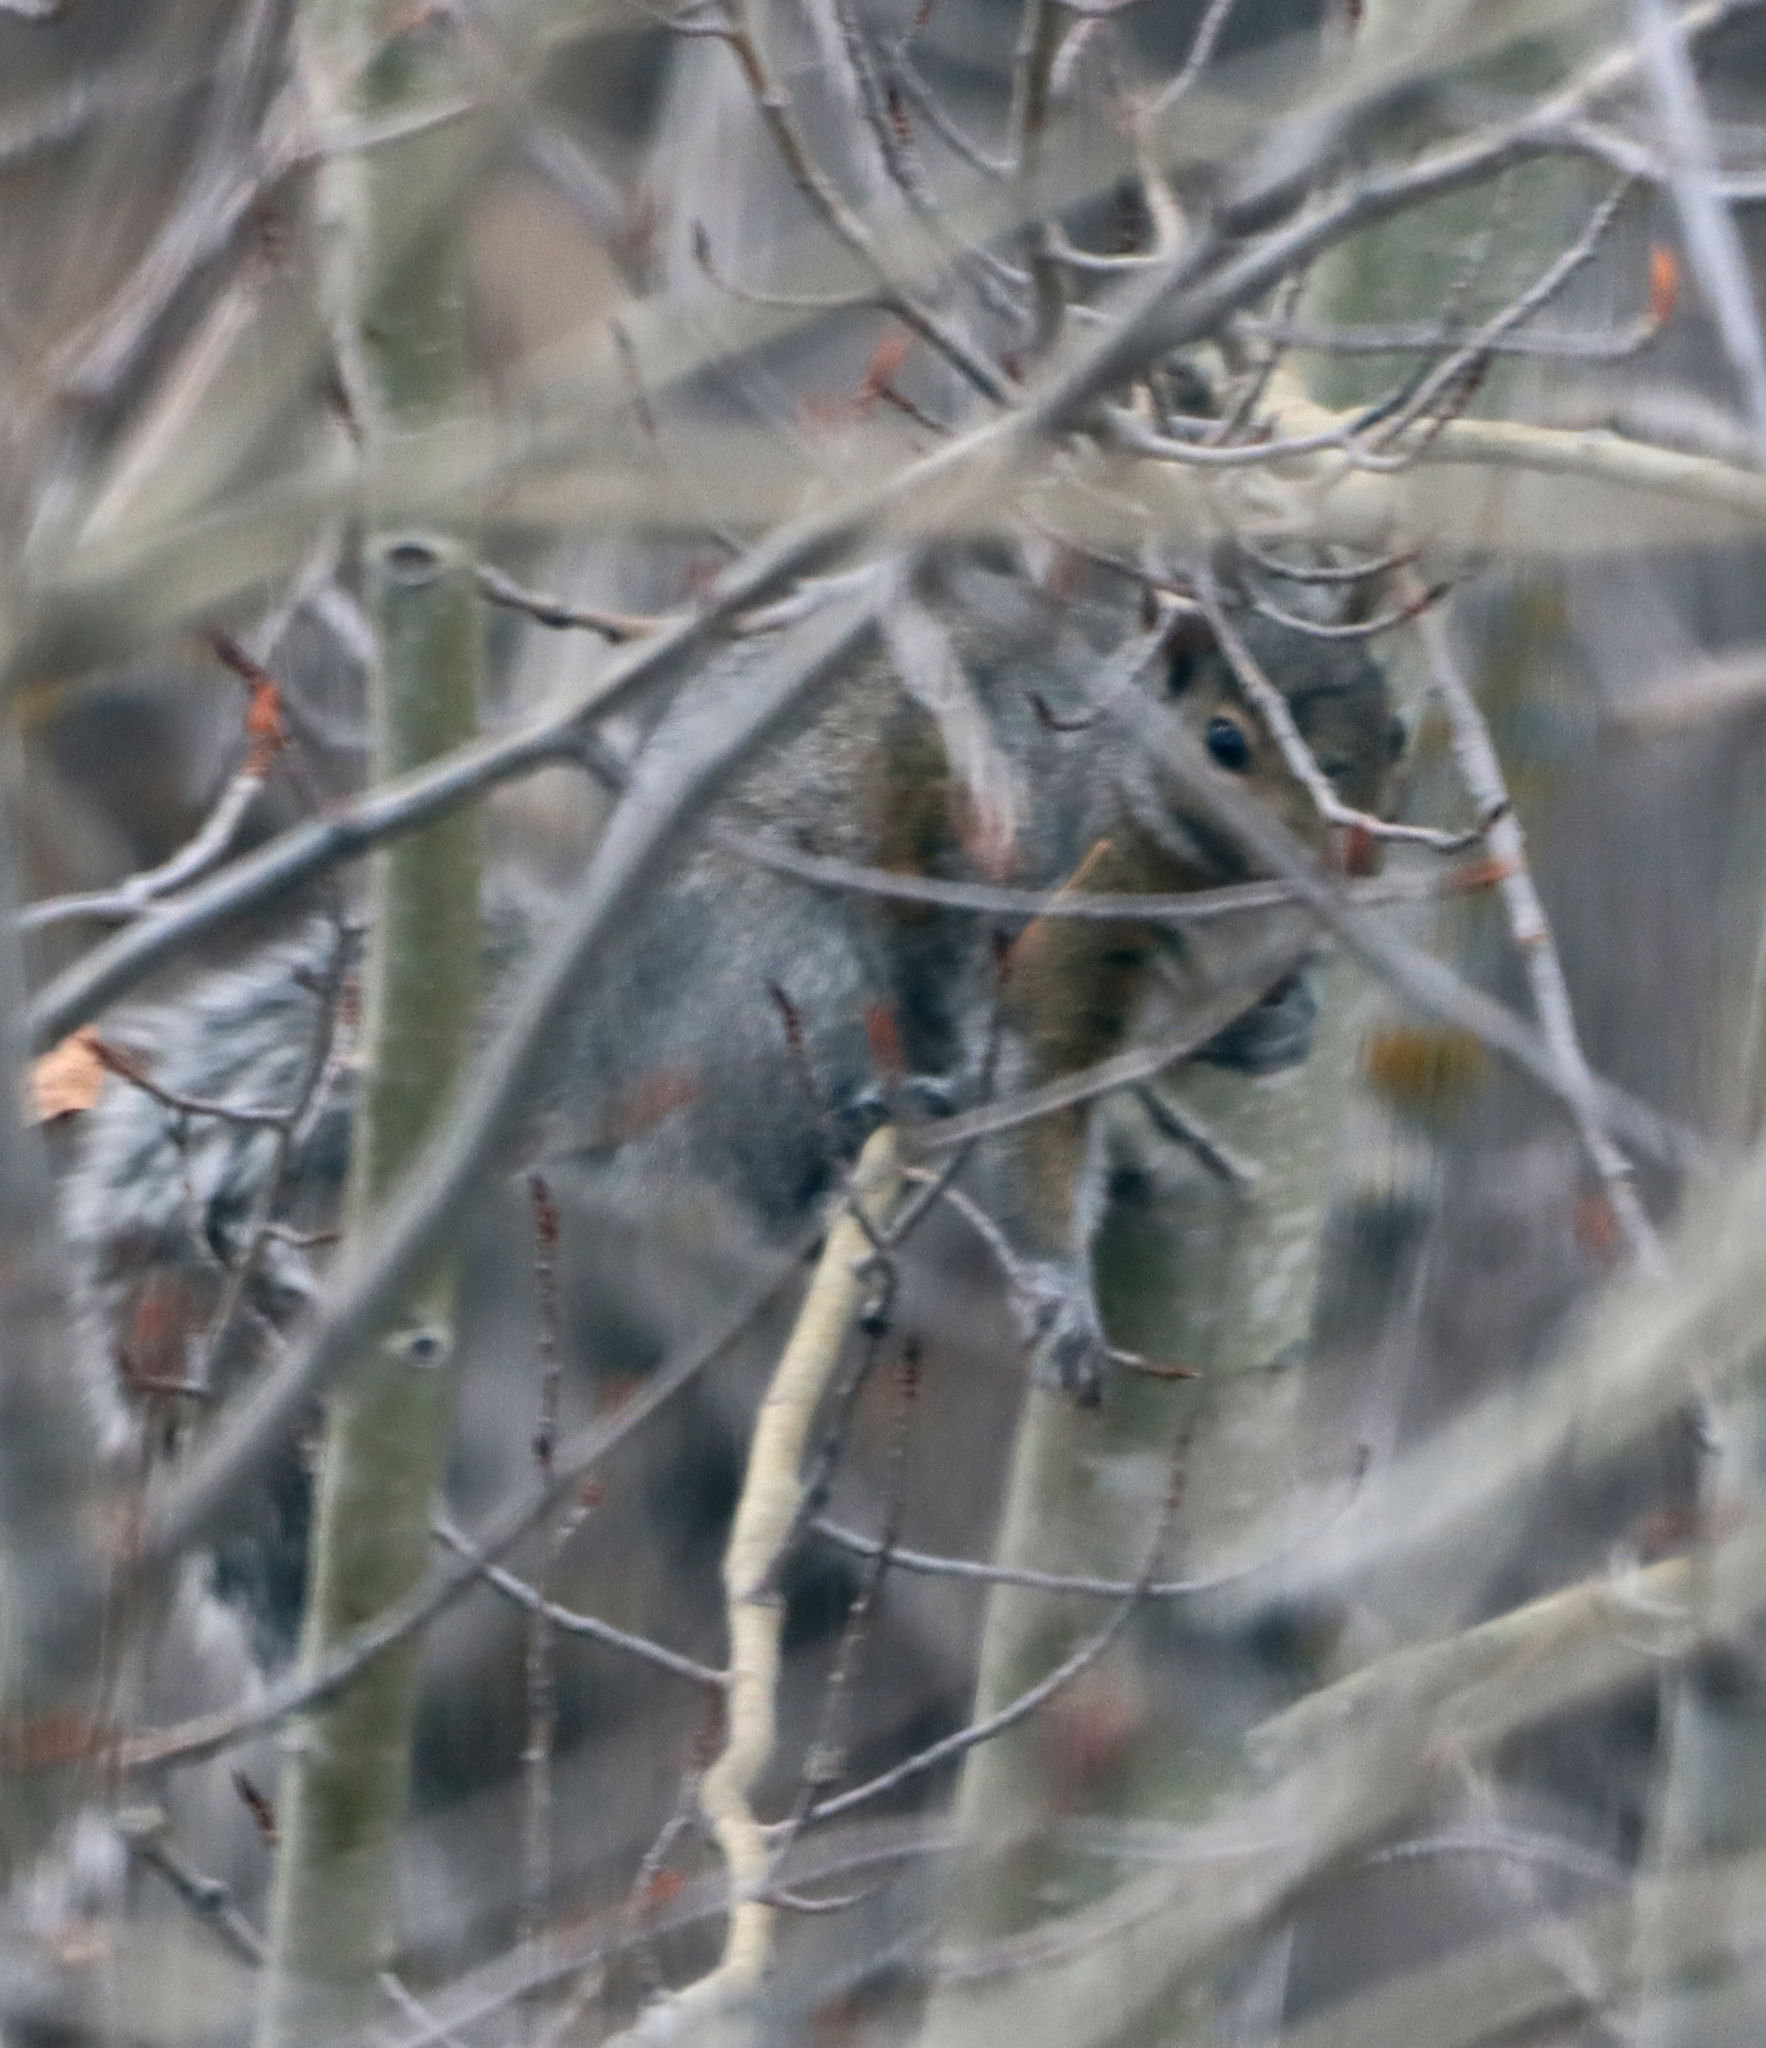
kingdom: Animalia
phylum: Chordata
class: Mammalia
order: Rodentia
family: Sciuridae
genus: Sciurus
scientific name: Sciurus carolinensis
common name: Eastern gray squirrel
